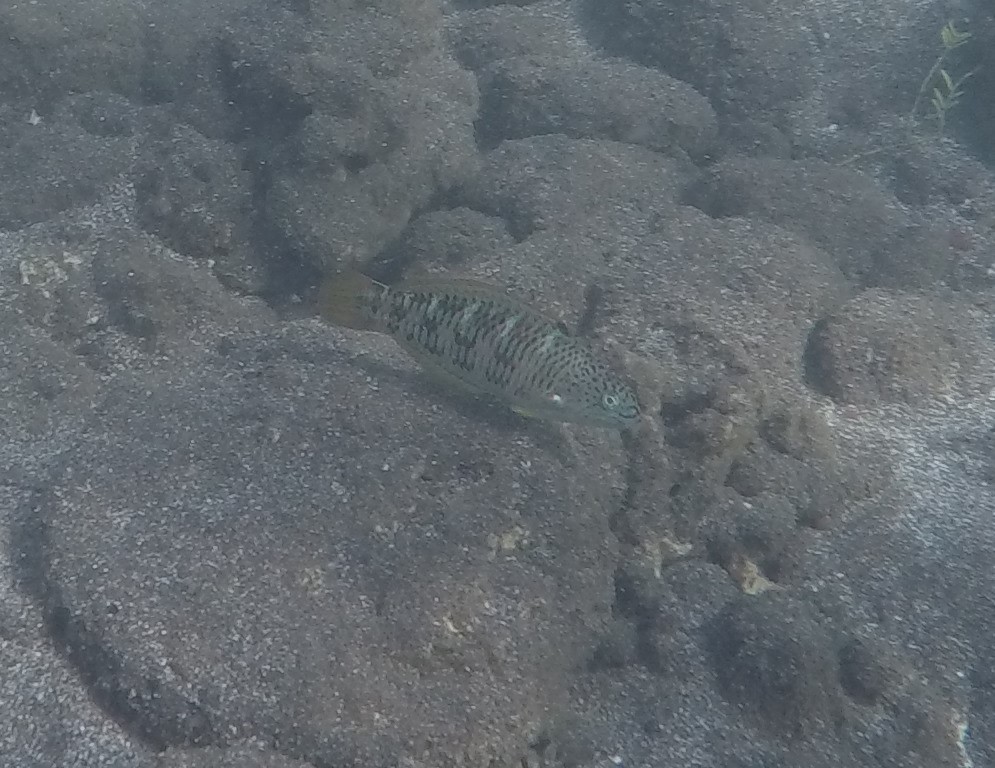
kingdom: Animalia
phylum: Chordata
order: Perciformes
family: Labridae
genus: Thalassoma
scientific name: Thalassoma purpureum
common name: Parrotfish
